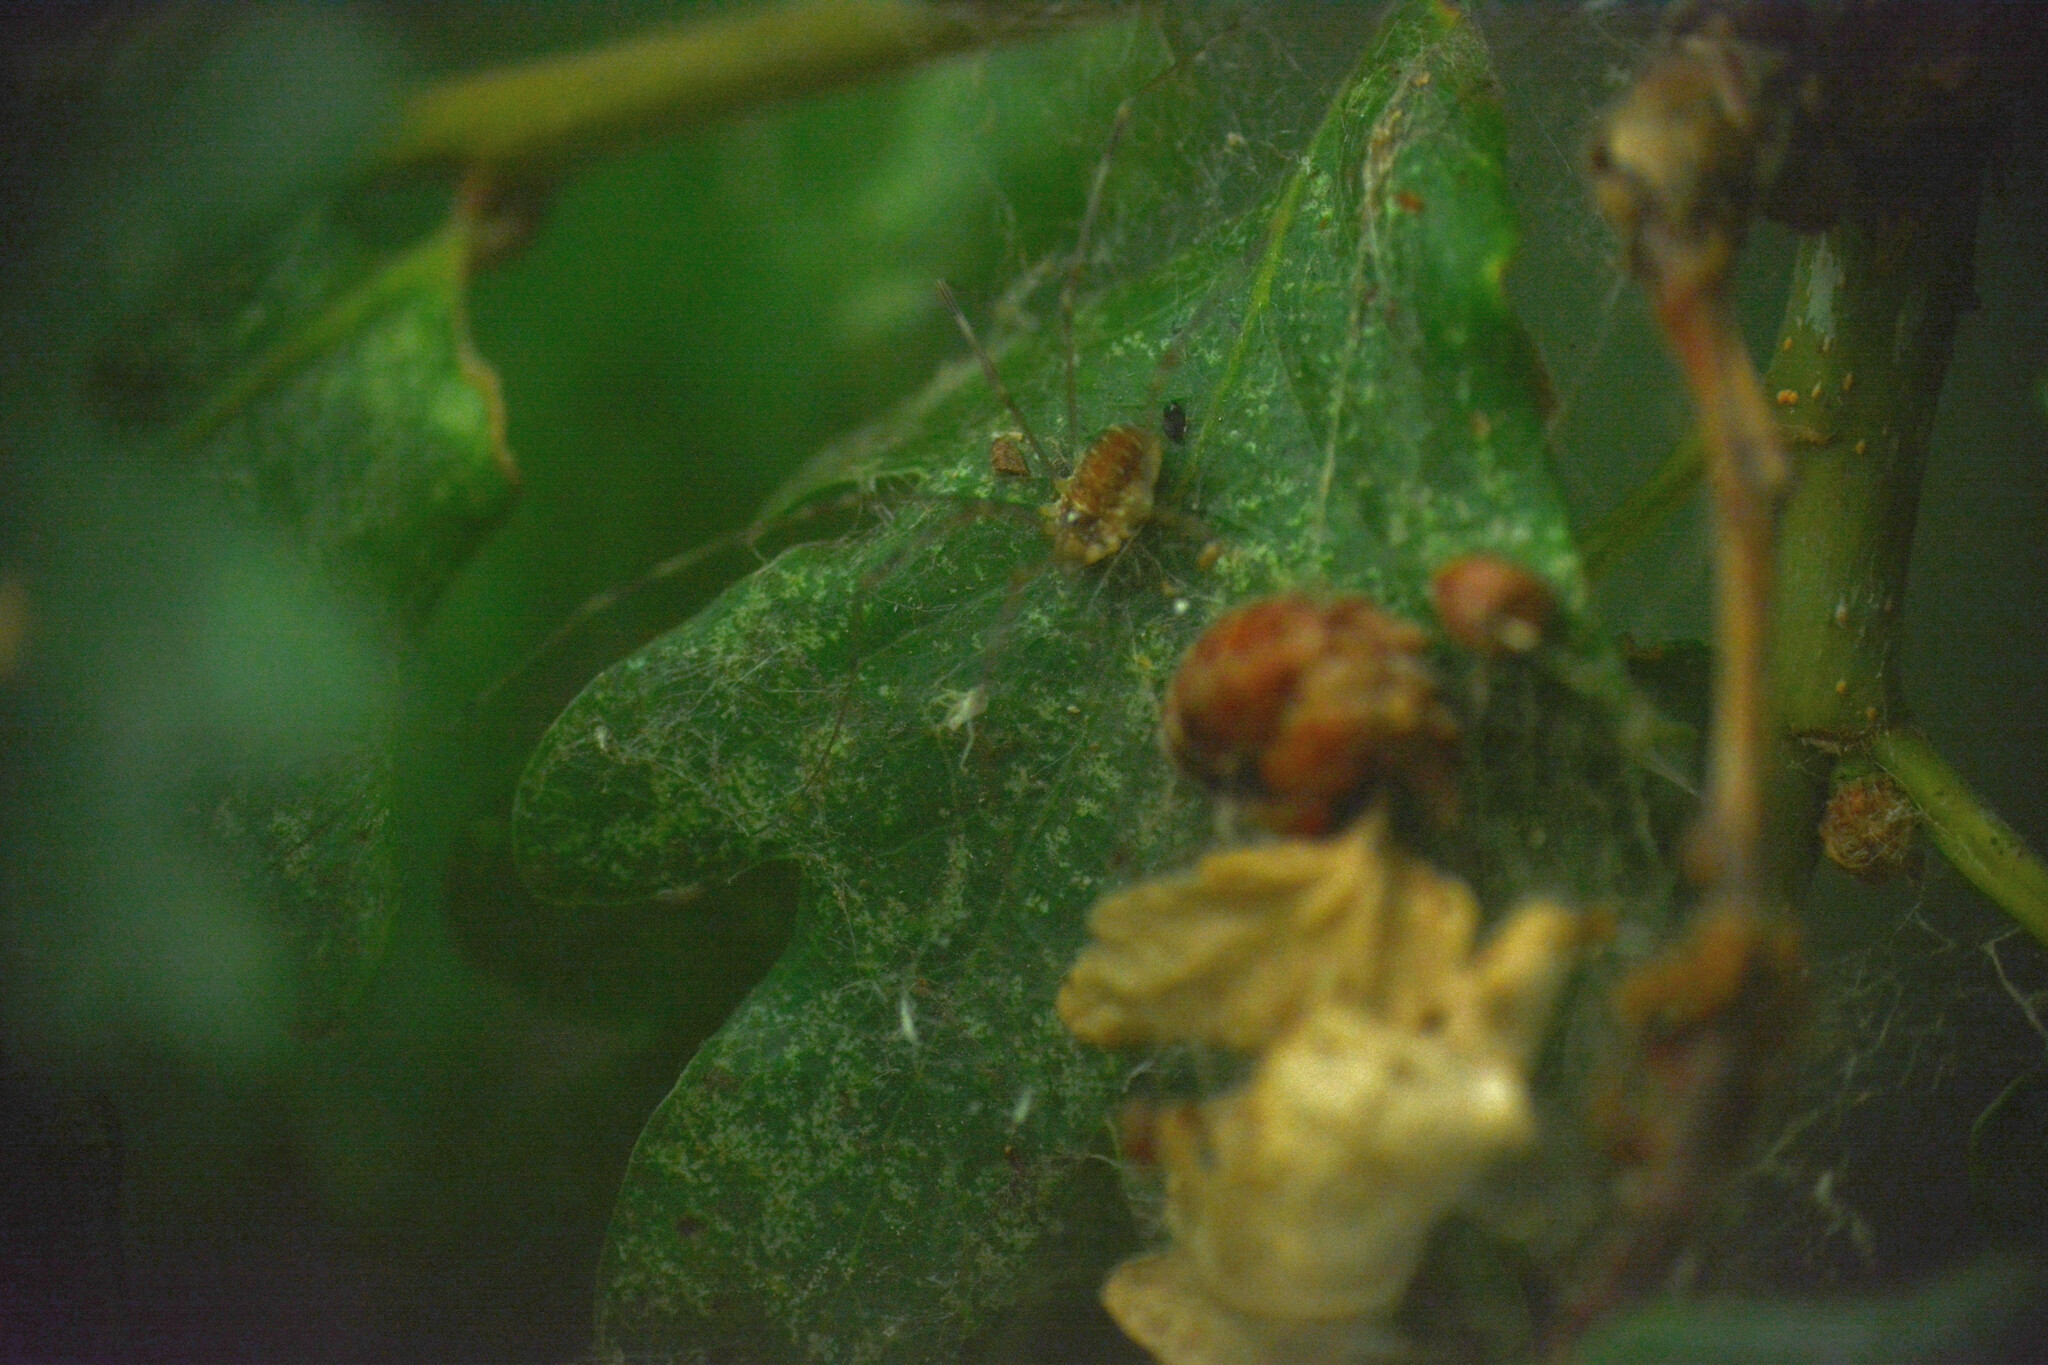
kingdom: Animalia
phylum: Arthropoda
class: Arachnida
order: Opiliones
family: Phalangiidae
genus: Opilio
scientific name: Opilio canestrinii
